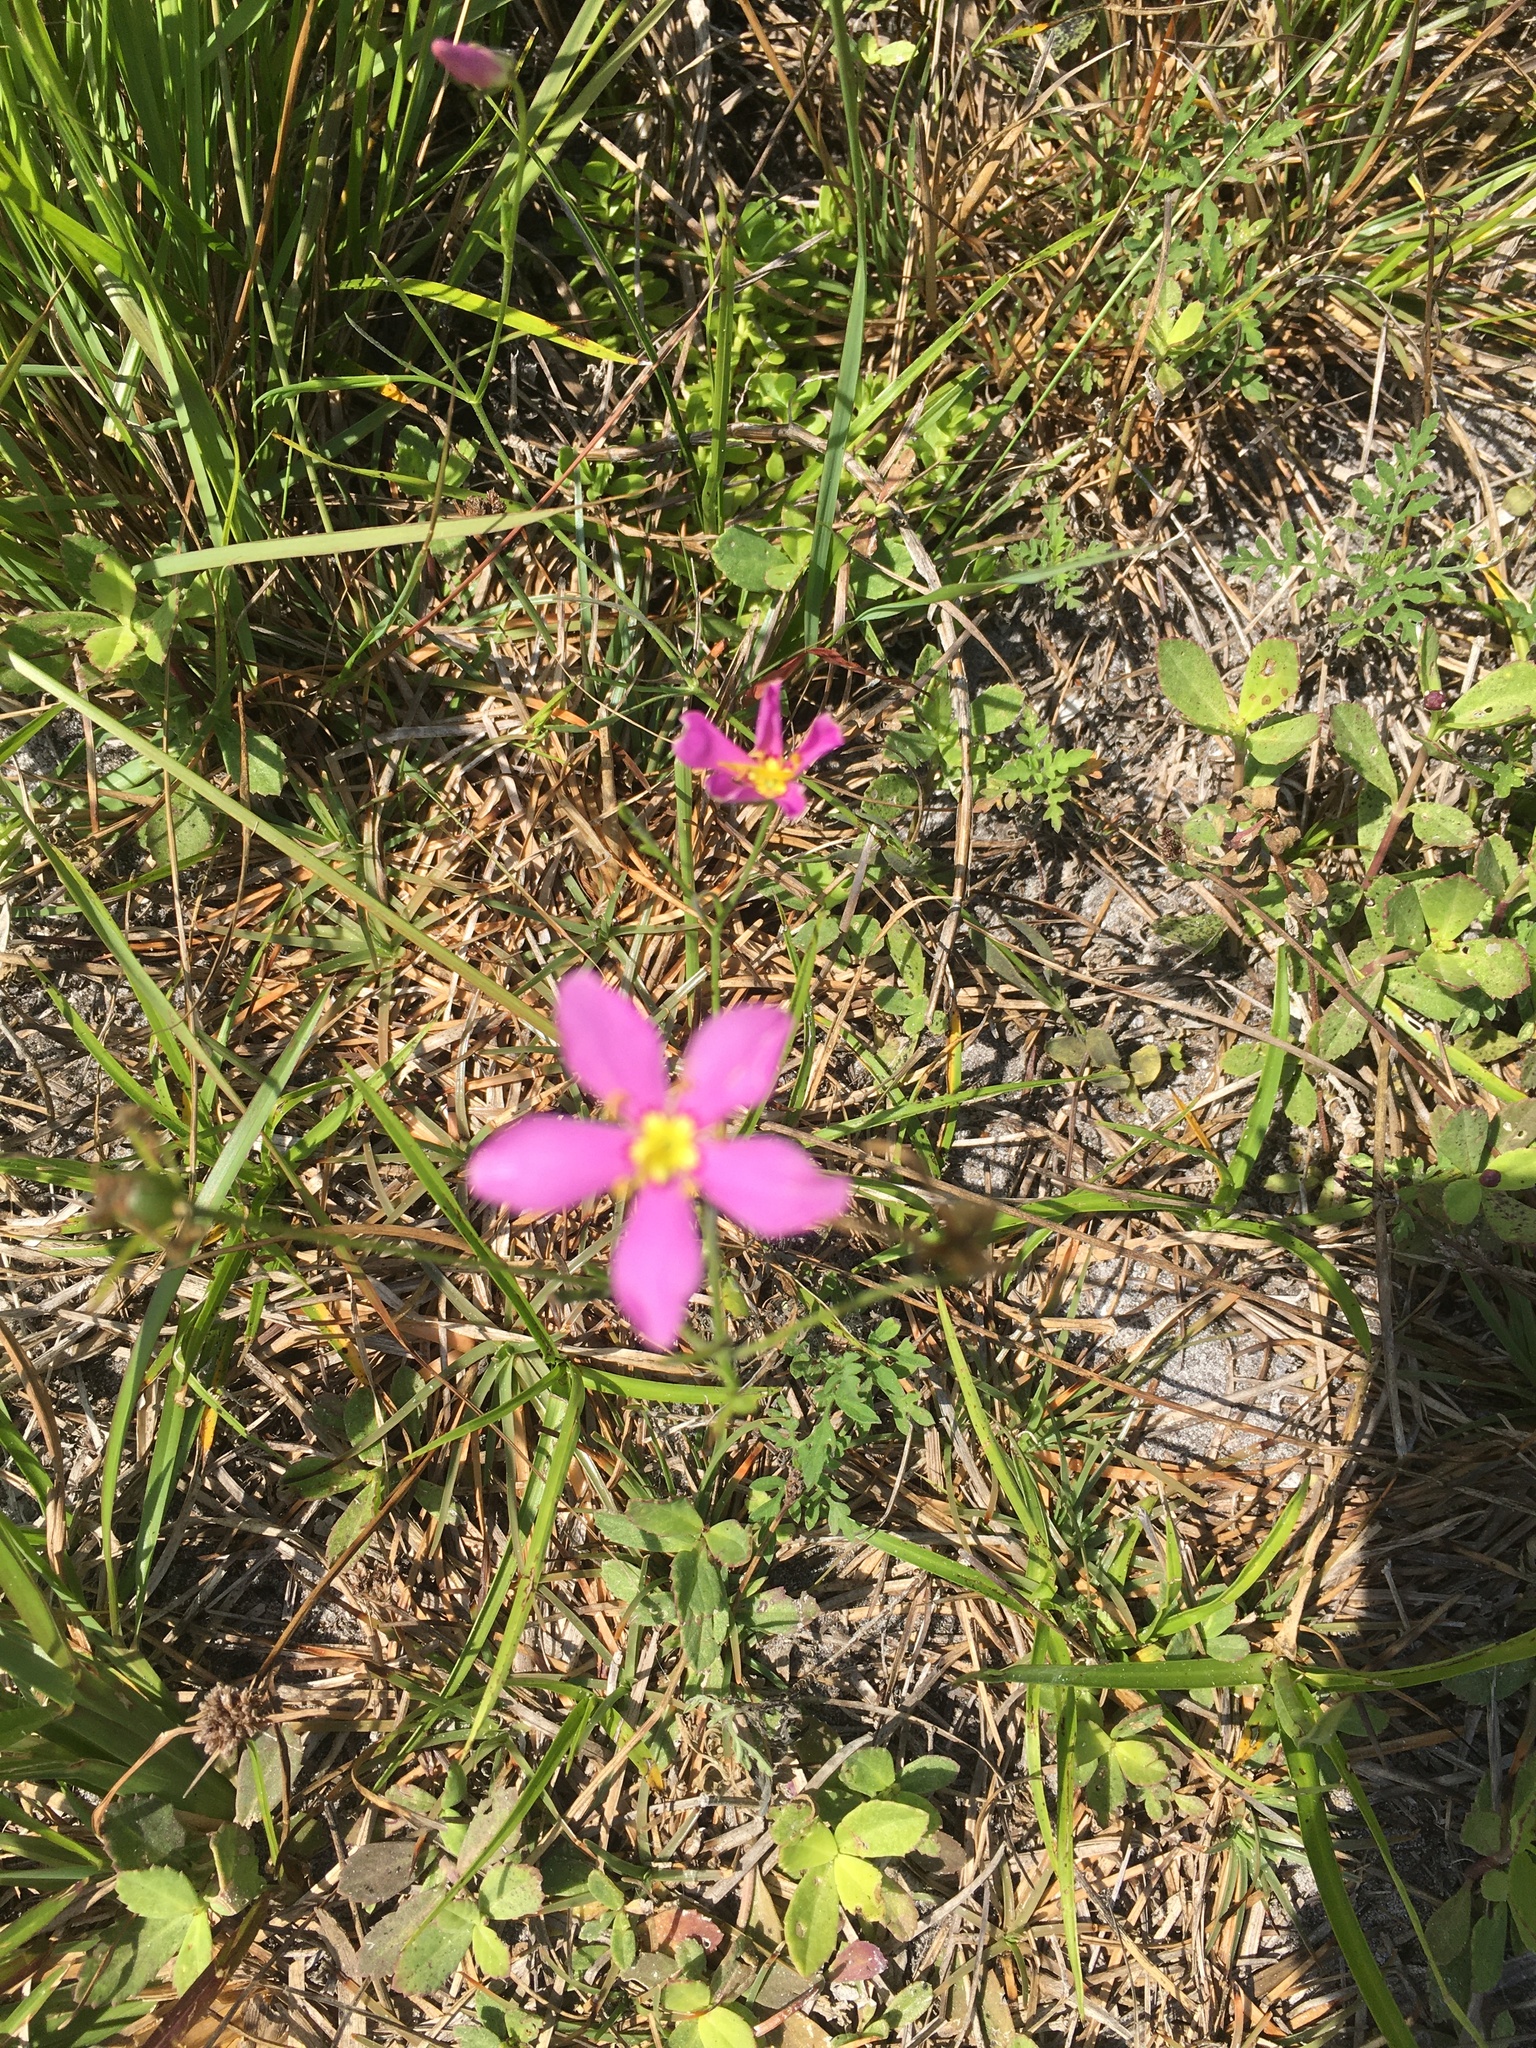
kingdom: Plantae
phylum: Tracheophyta
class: Magnoliopsida
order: Gentianales
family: Gentianaceae
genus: Sabatia
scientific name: Sabatia stellaris
